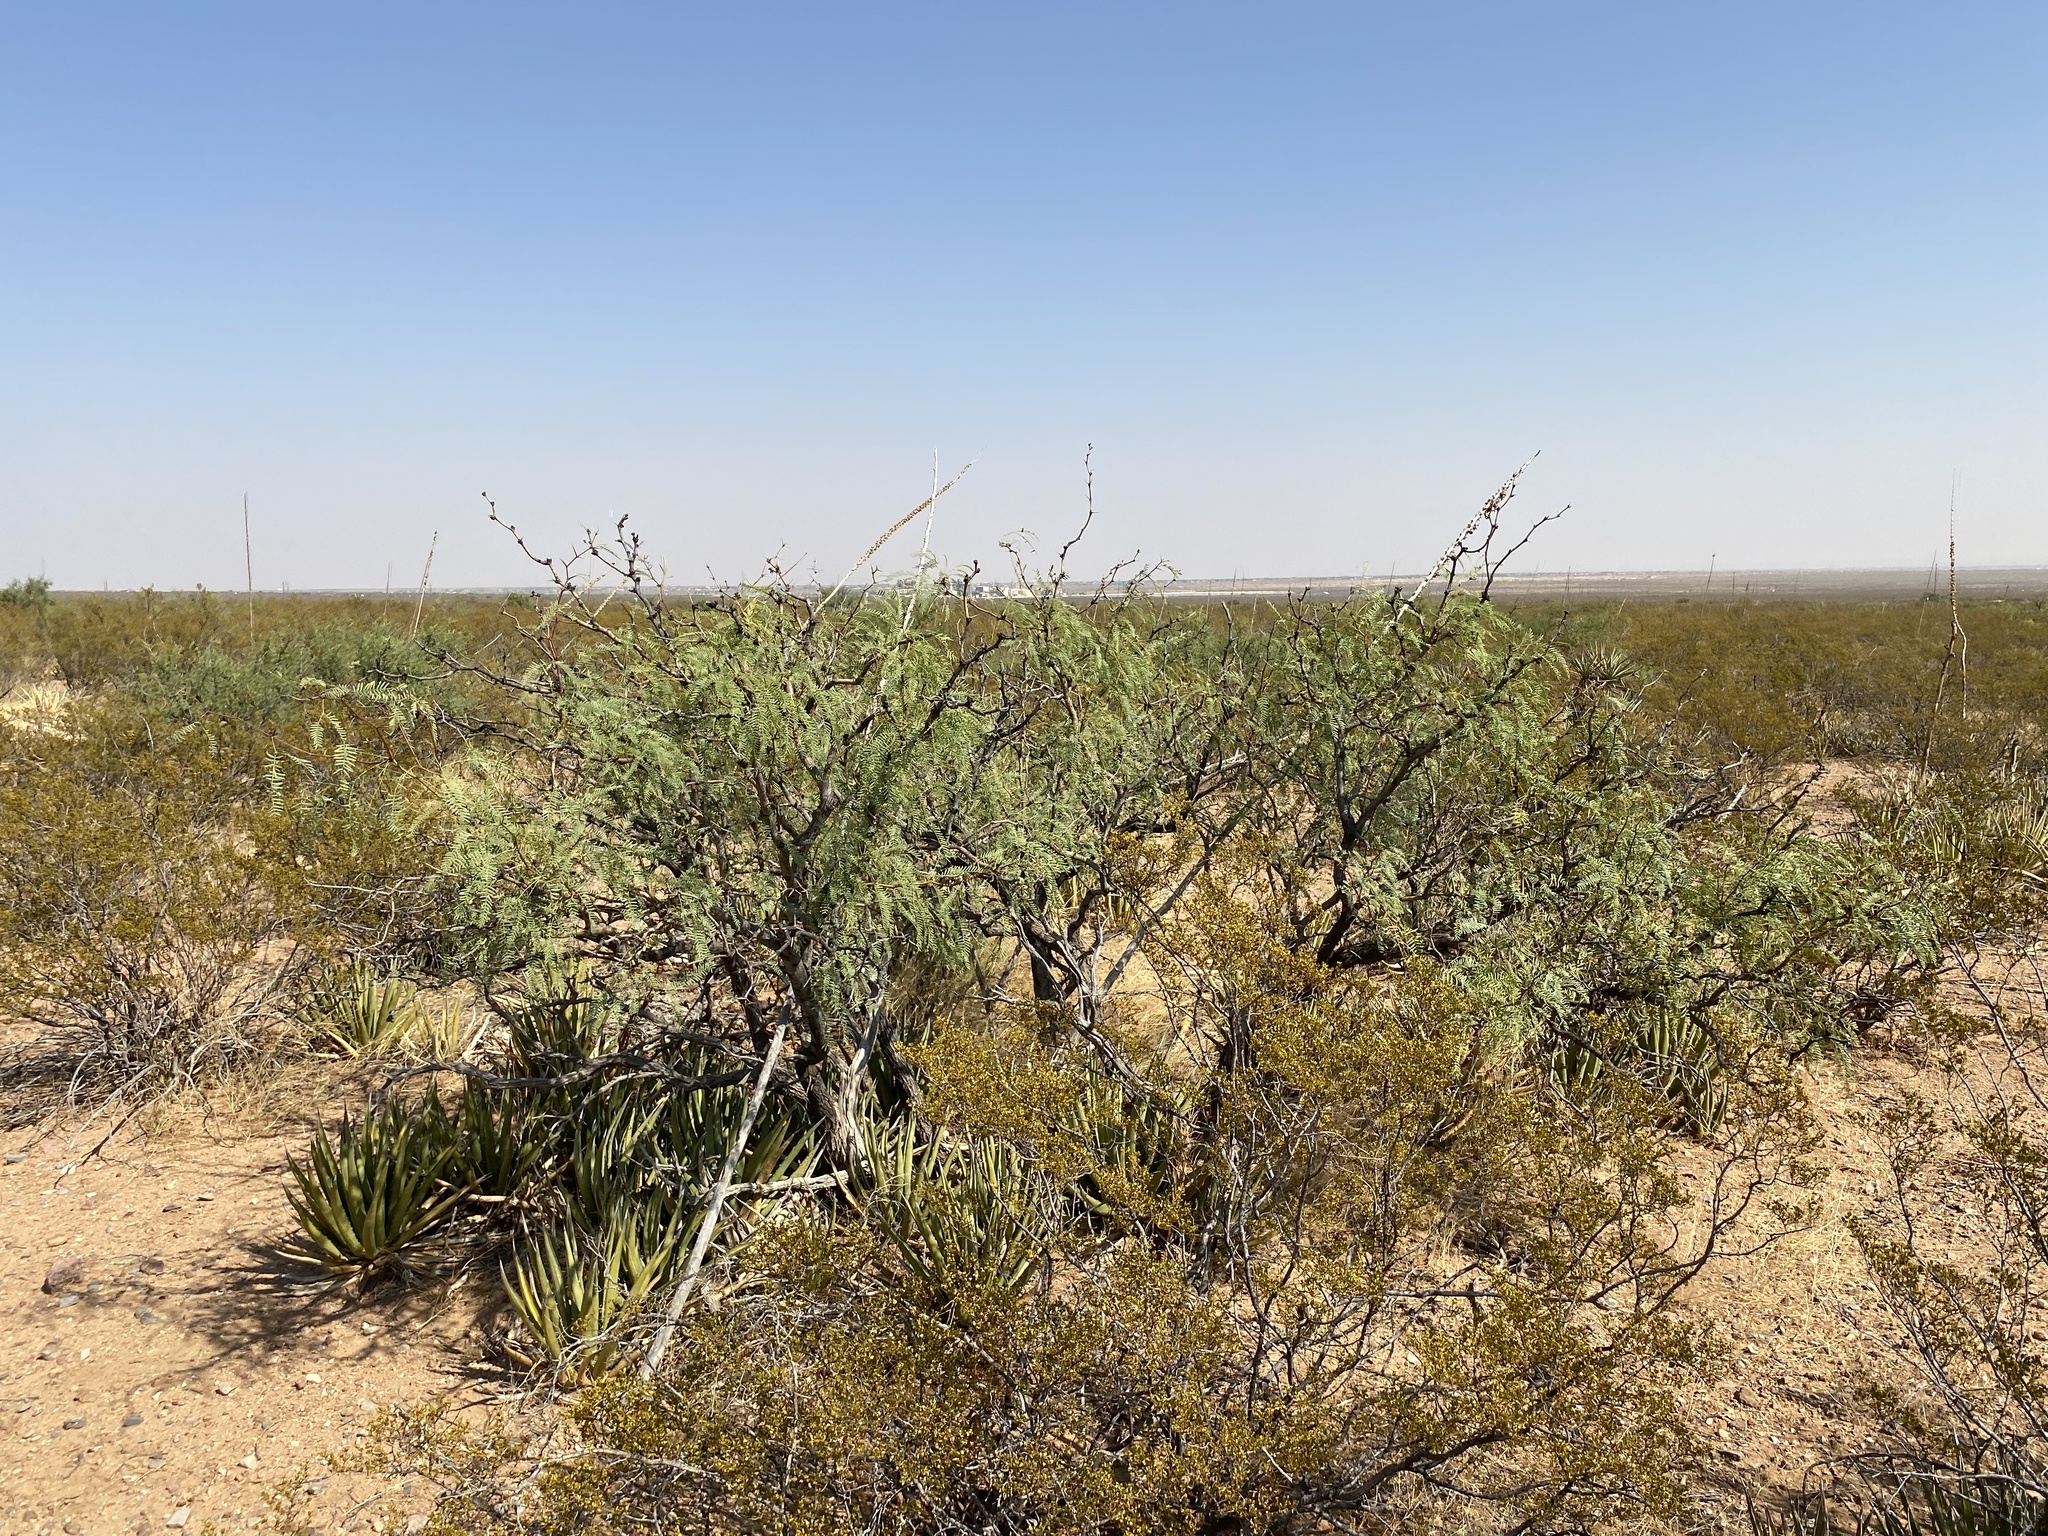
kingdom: Plantae
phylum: Tracheophyta
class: Magnoliopsida
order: Fabales
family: Fabaceae
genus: Prosopis
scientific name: Prosopis glandulosa
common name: Honey mesquite
